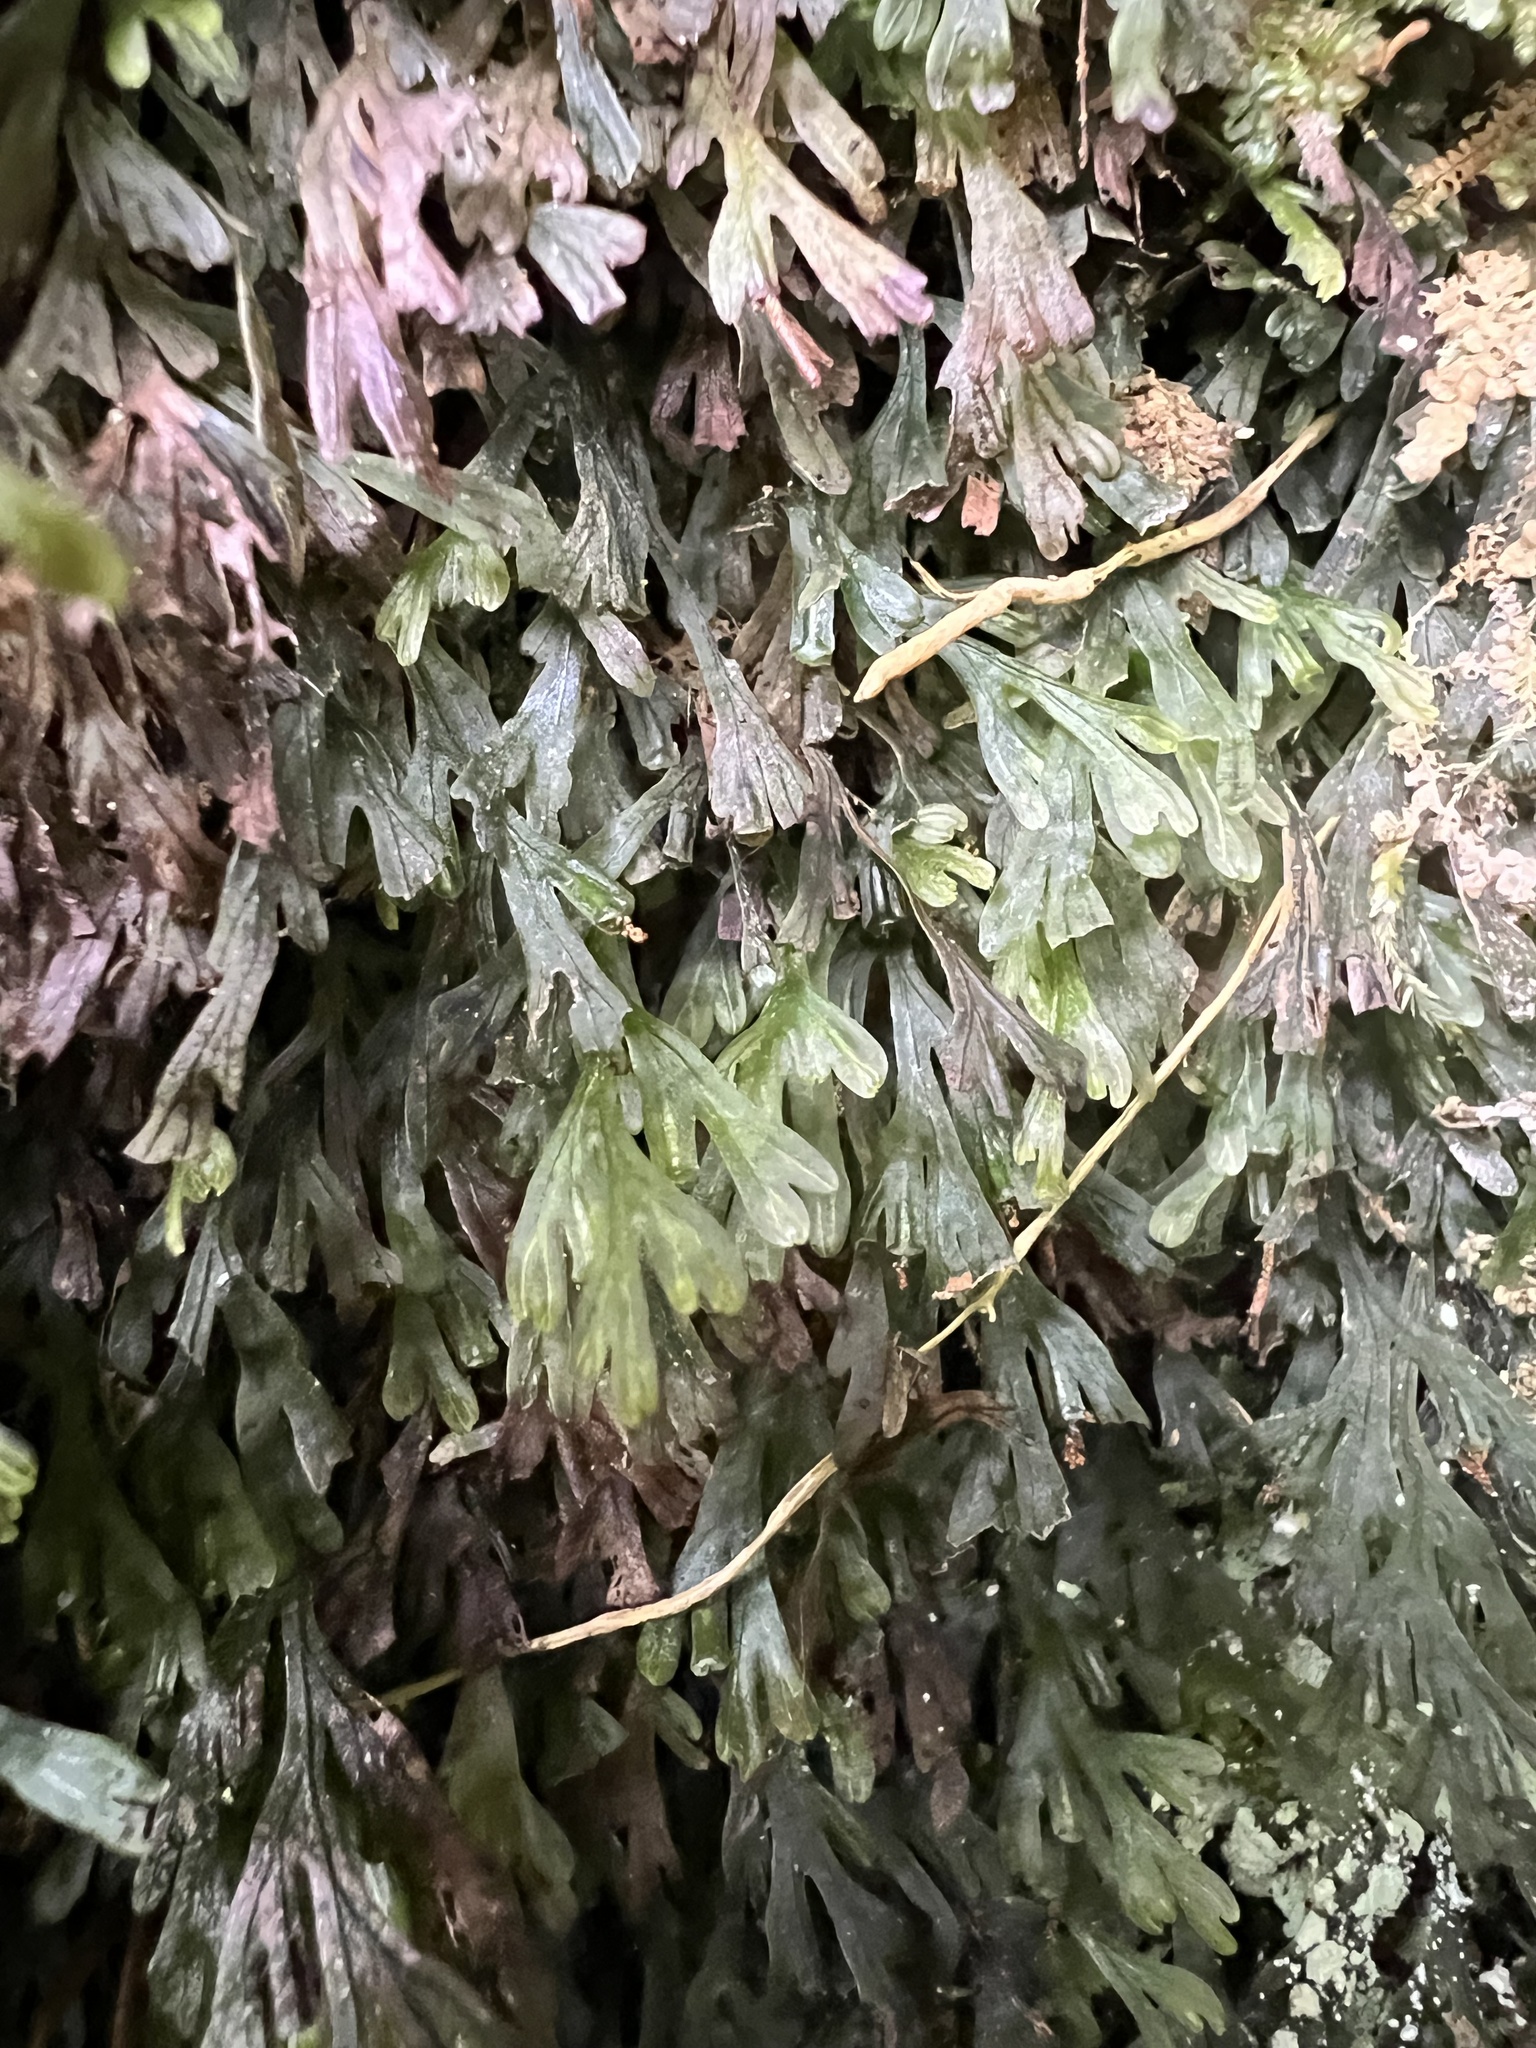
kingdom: Plantae
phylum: Tracheophyta
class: Polypodiopsida
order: Hymenophyllales
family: Hymenophyllaceae
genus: Polyphlebium
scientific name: Polyphlebium endlicherianum
